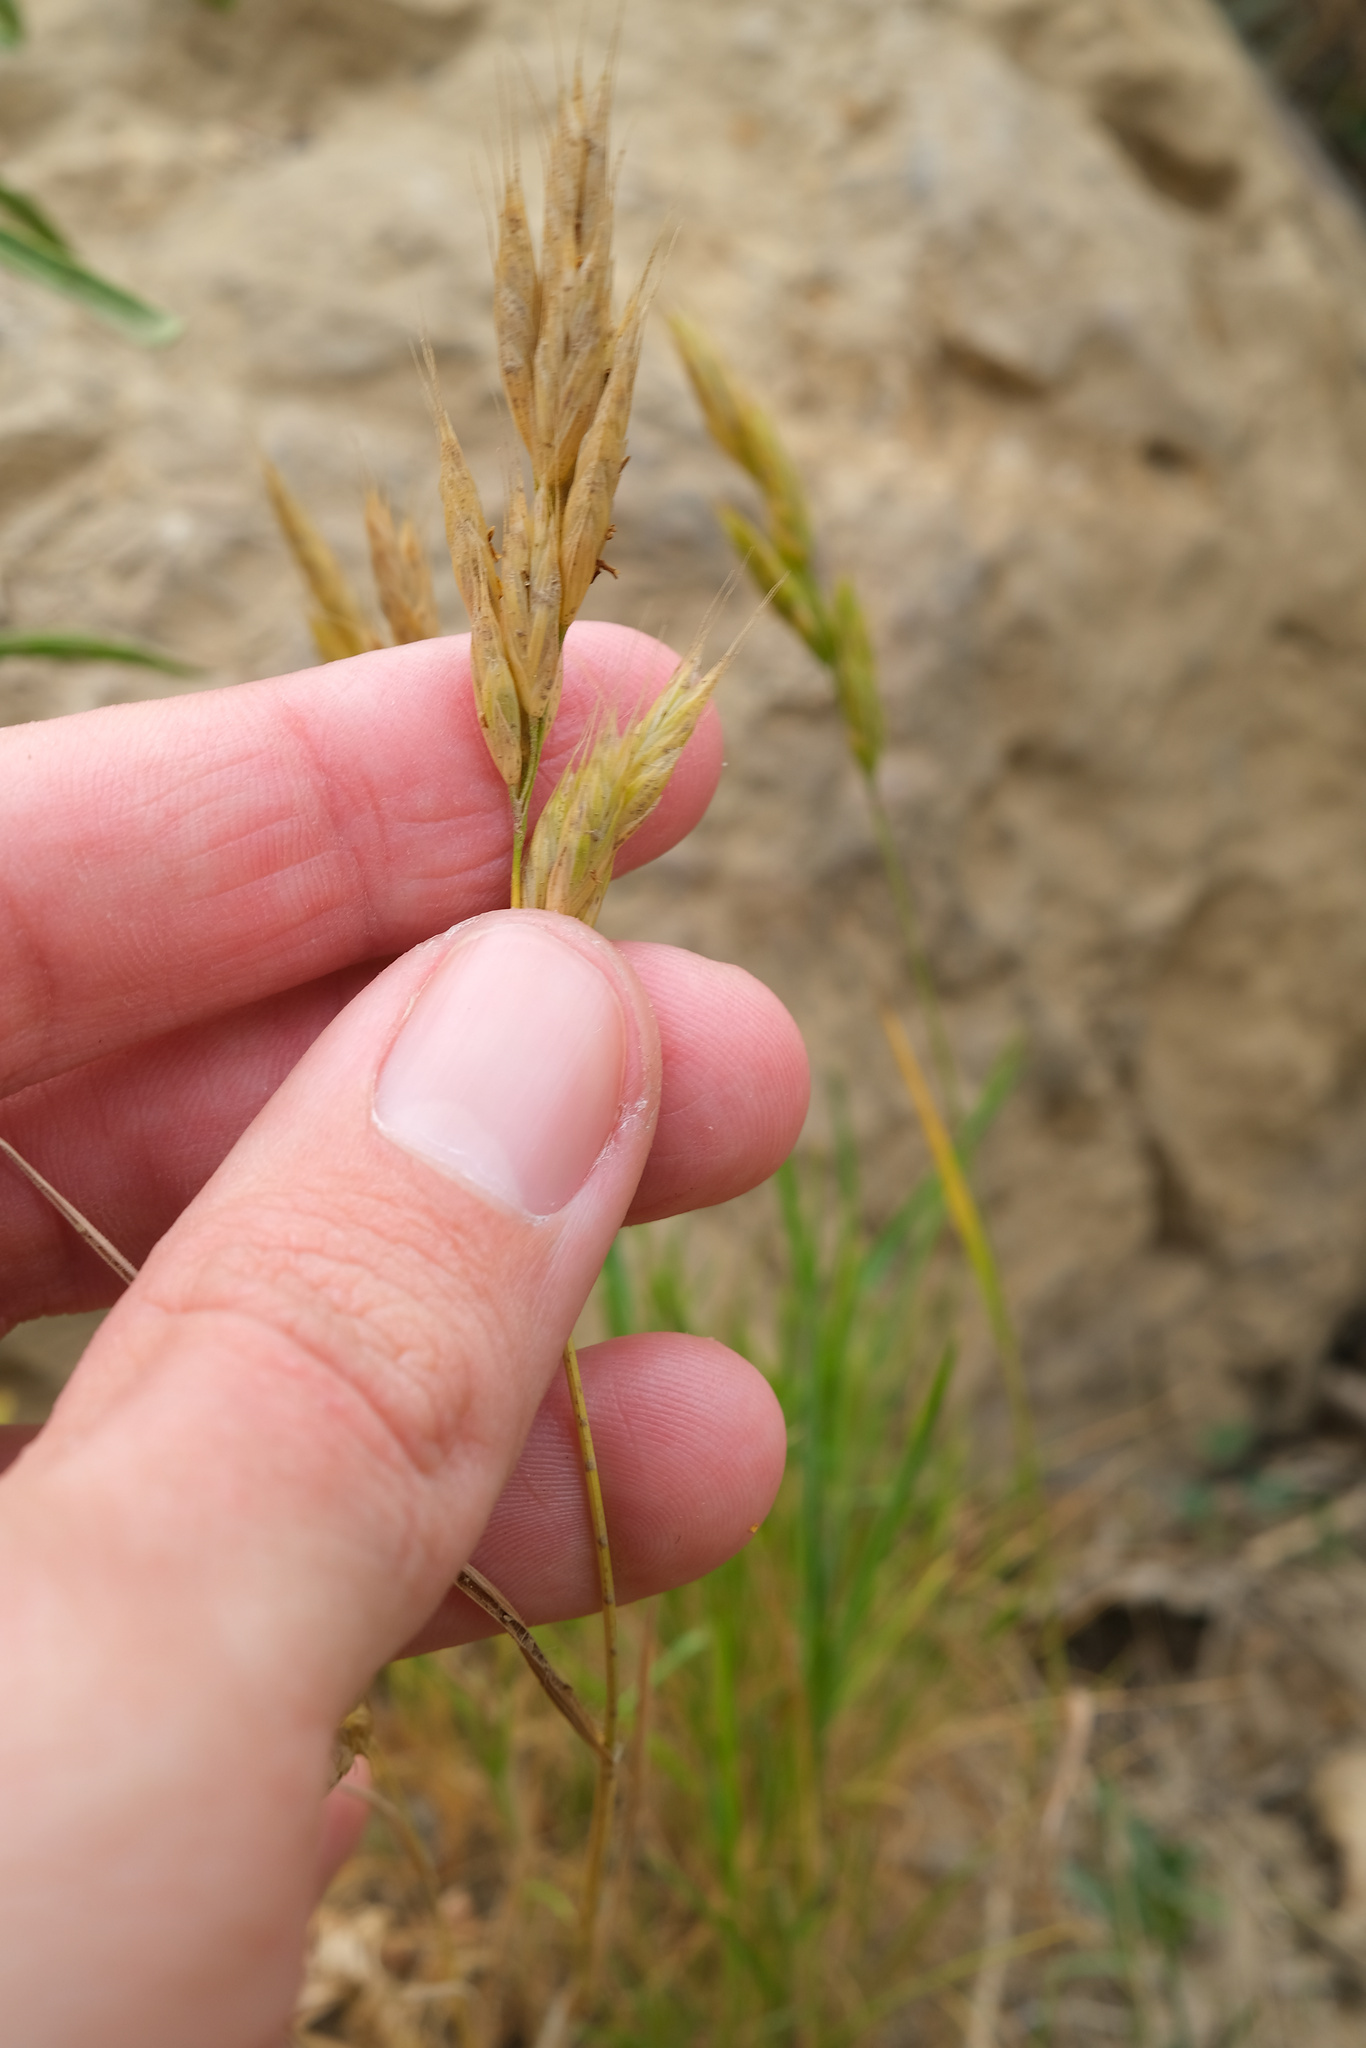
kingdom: Plantae
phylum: Tracheophyta
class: Liliopsida
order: Poales
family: Poaceae
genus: Bromus
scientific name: Bromus hordeaceus
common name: Soft brome
